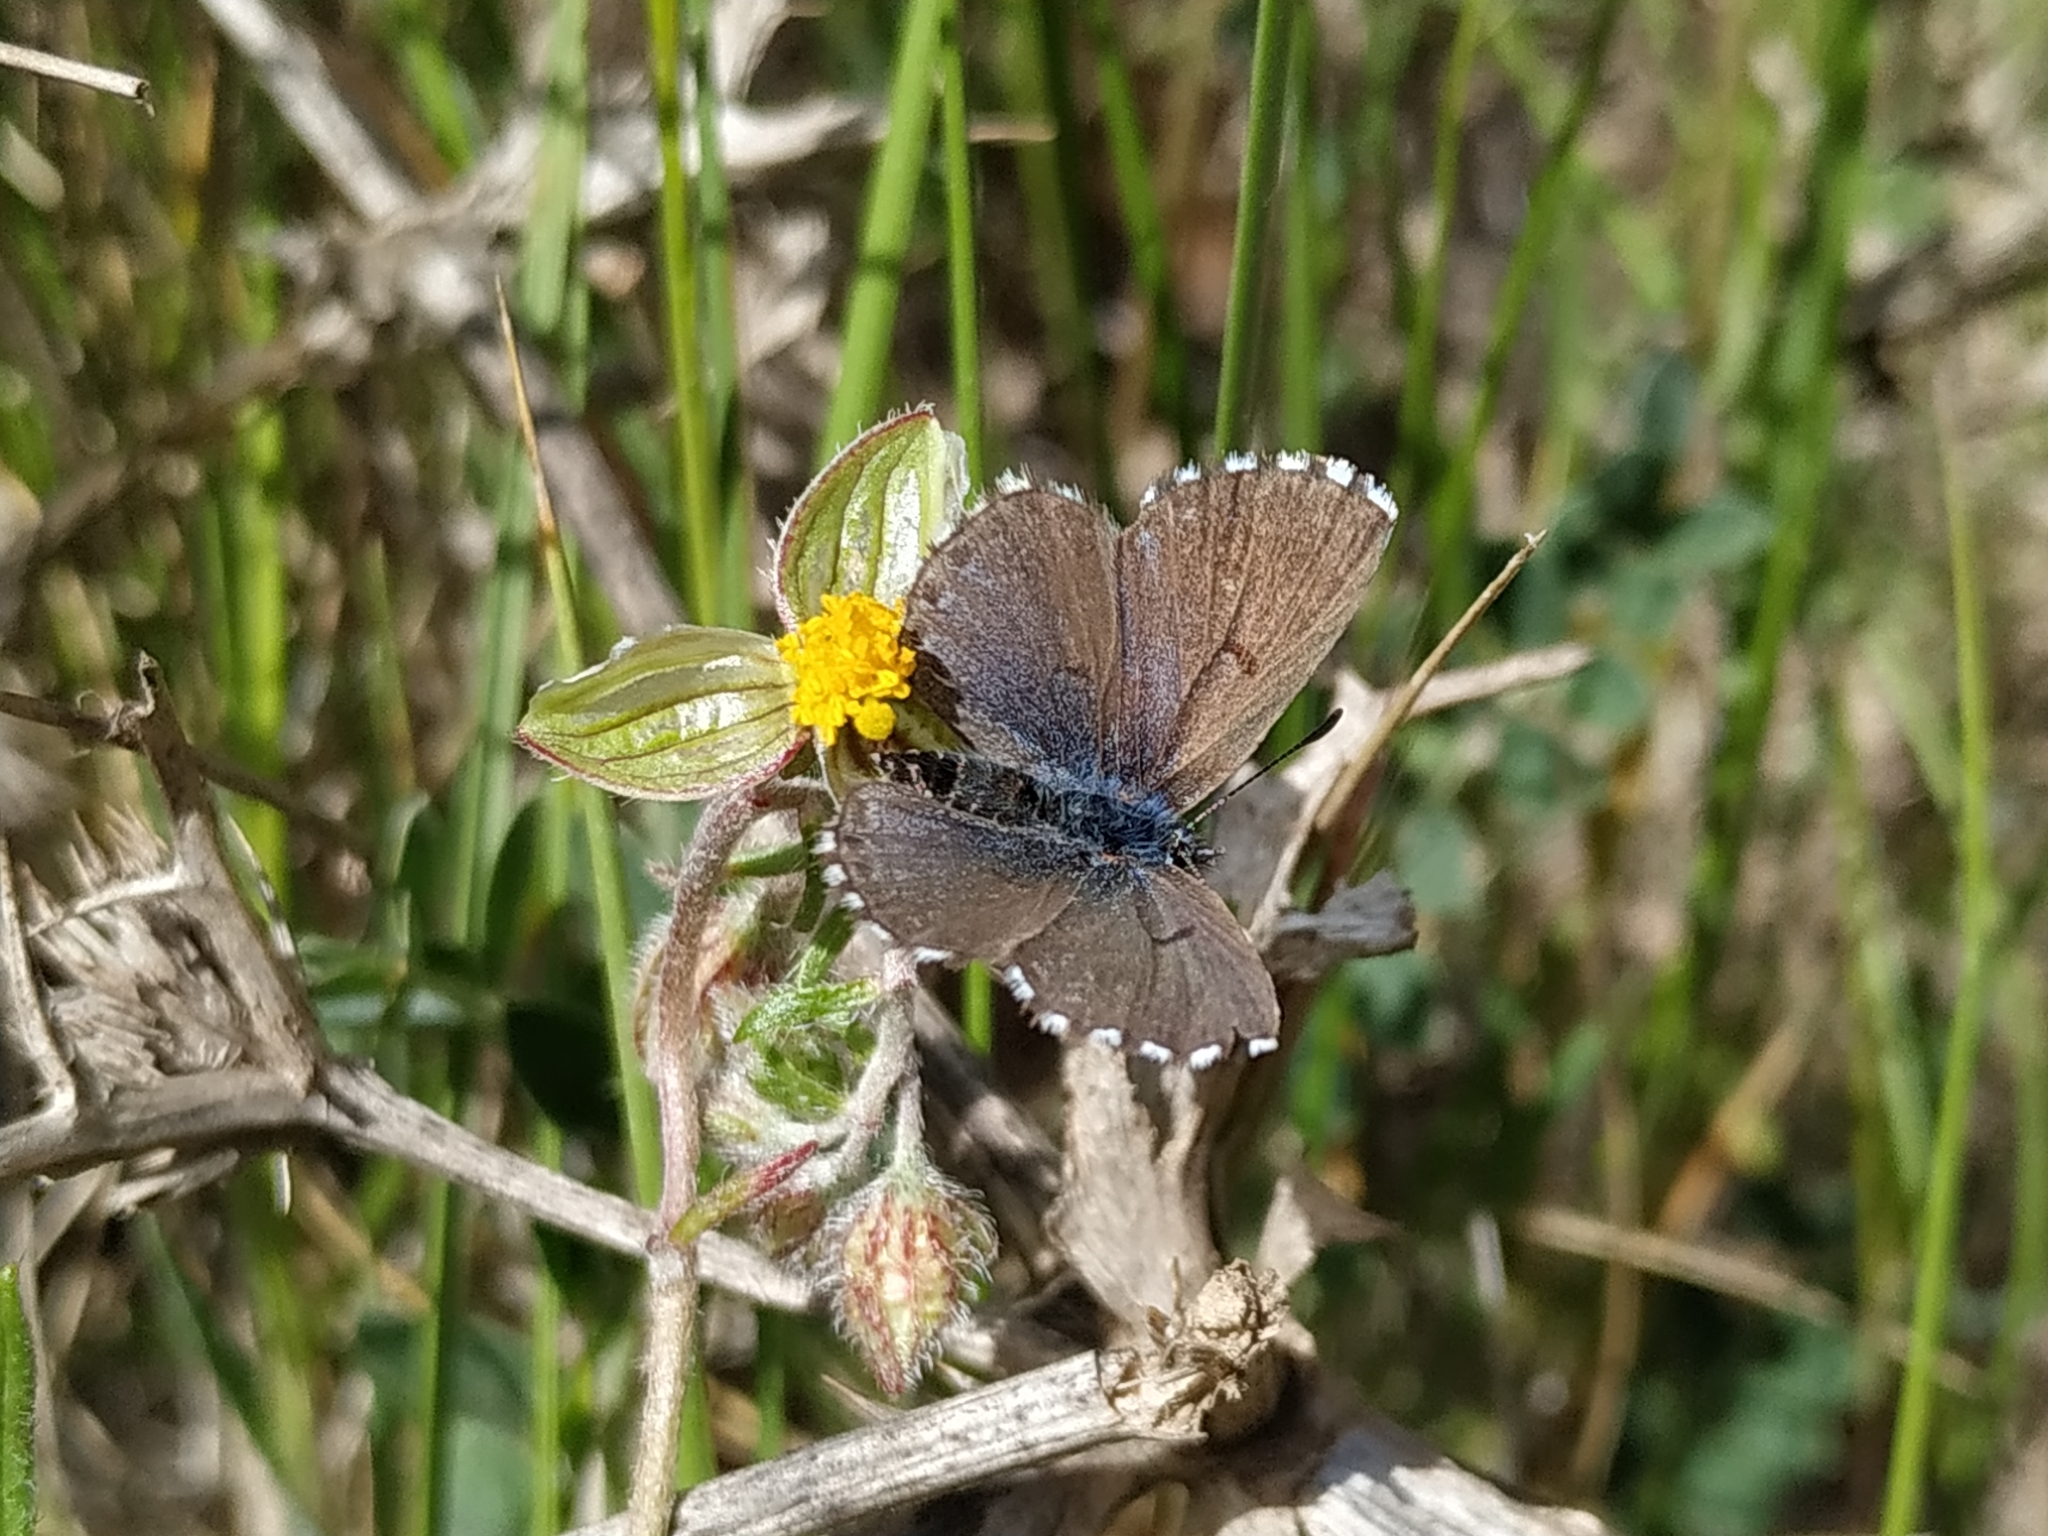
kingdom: Animalia
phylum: Arthropoda
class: Insecta
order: Lepidoptera
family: Lycaenidae
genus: Pseudophilotes
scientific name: Pseudophilotes baton
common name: Baton blue
